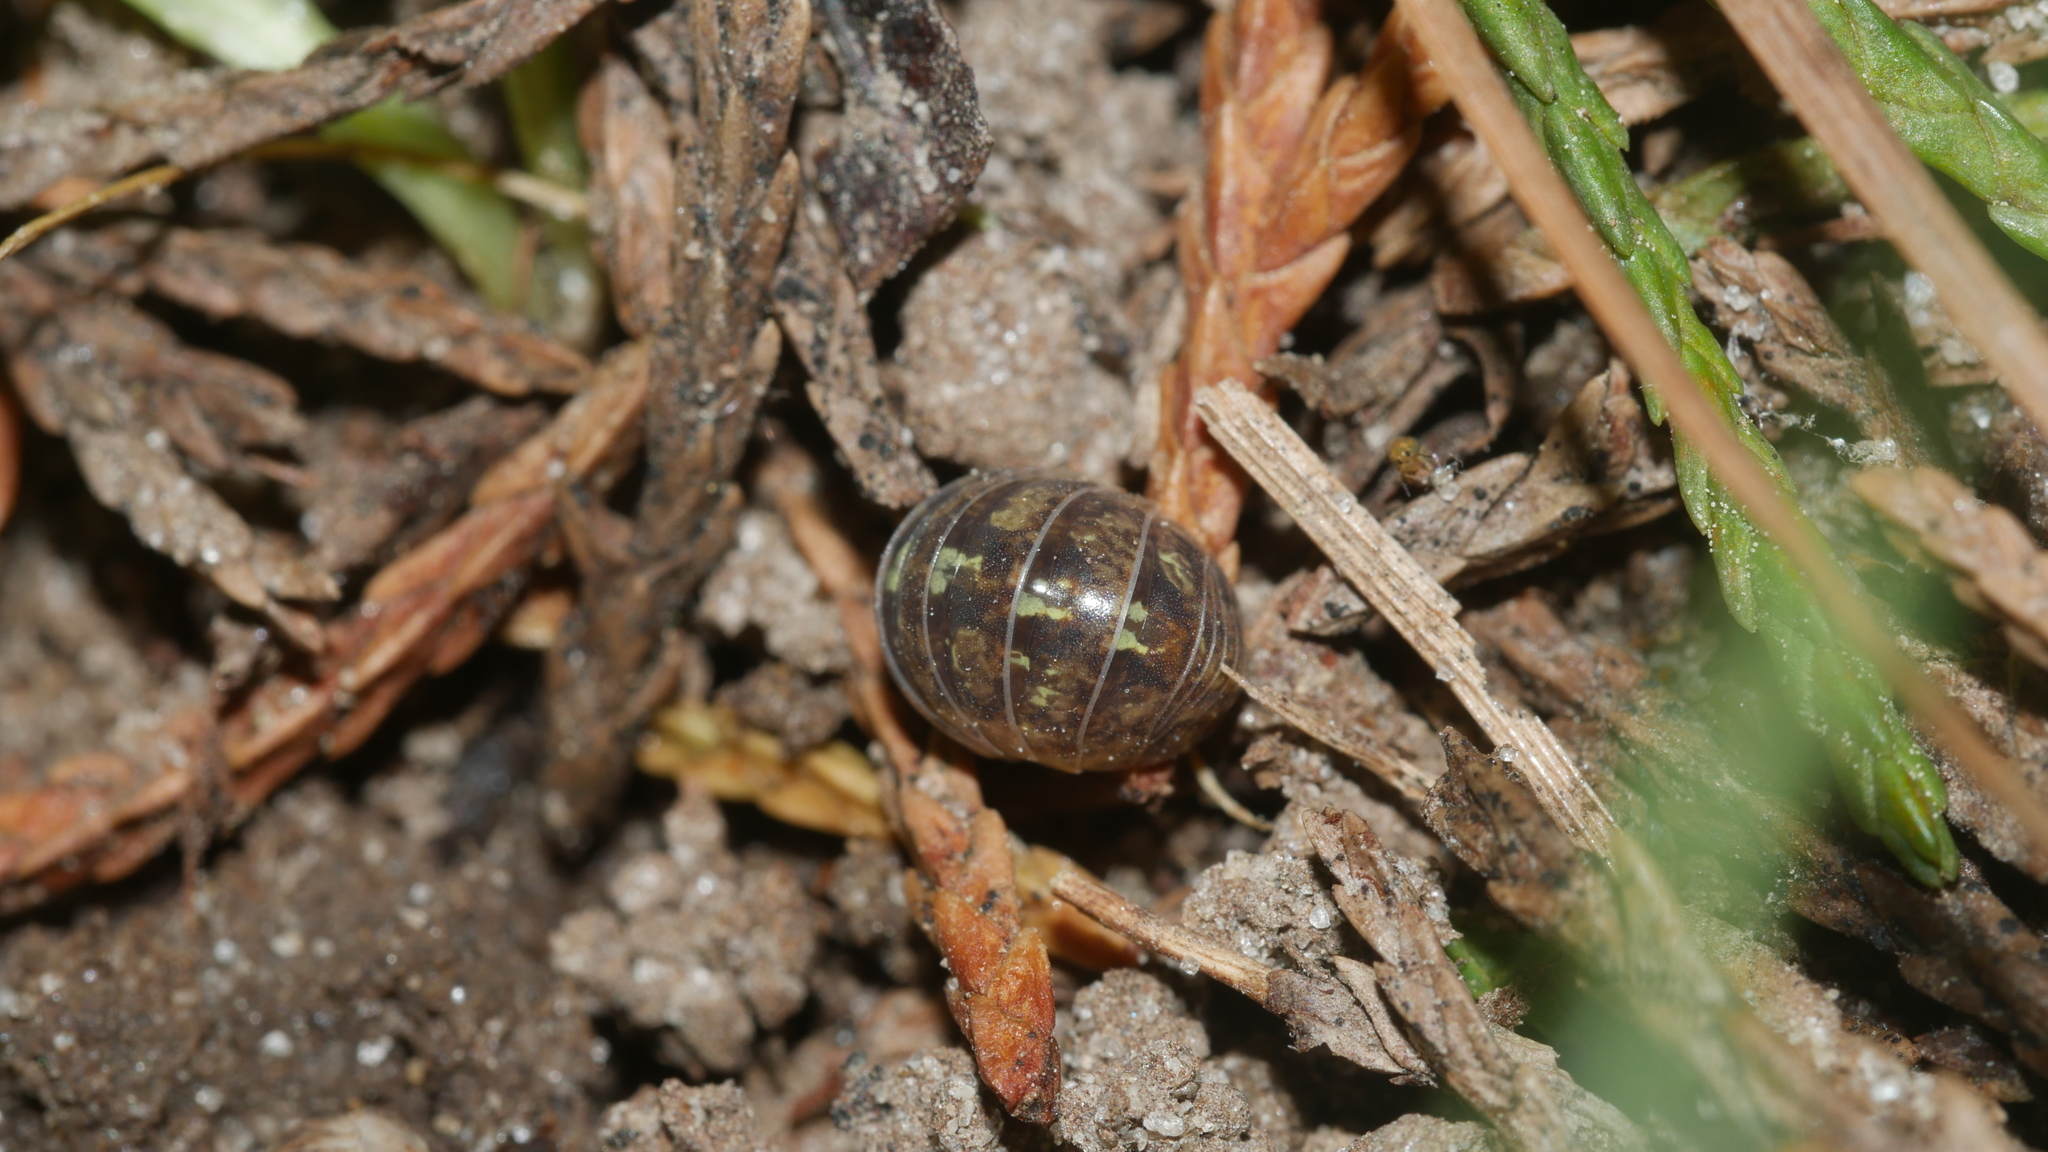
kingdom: Animalia
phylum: Arthropoda
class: Malacostraca
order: Isopoda
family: Armadillidiidae
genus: Armadillidium
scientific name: Armadillidium vulgare
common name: Common pill woodlouse
